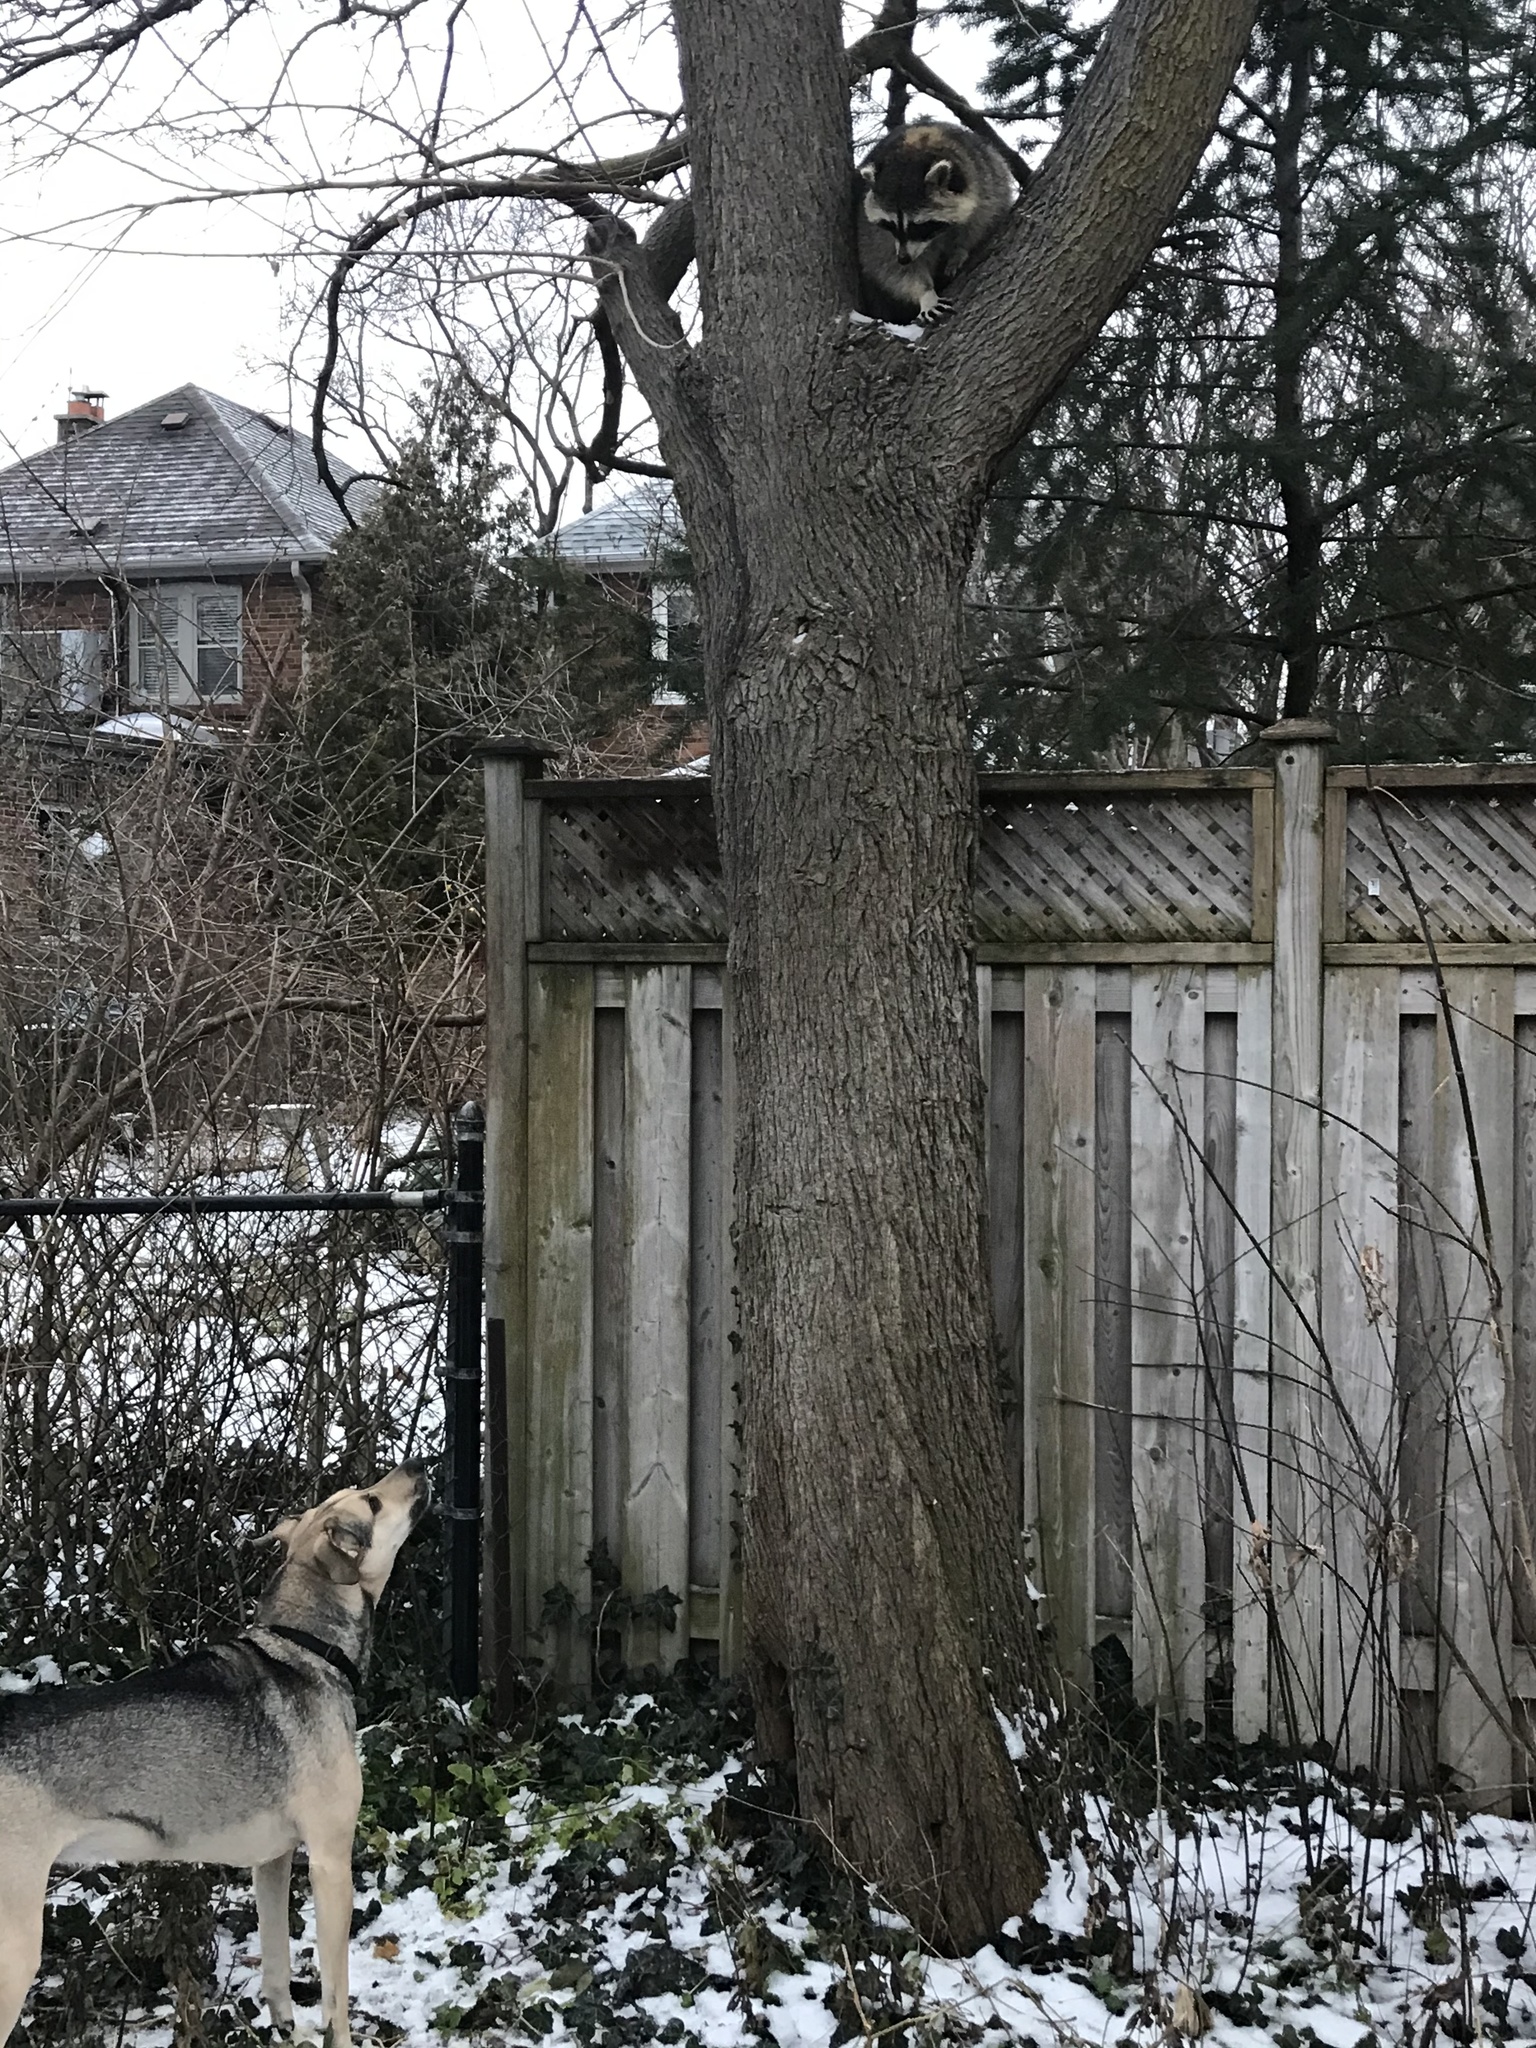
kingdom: Animalia
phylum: Chordata
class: Mammalia
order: Carnivora
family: Procyonidae
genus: Procyon
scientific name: Procyon lotor
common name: Raccoon
